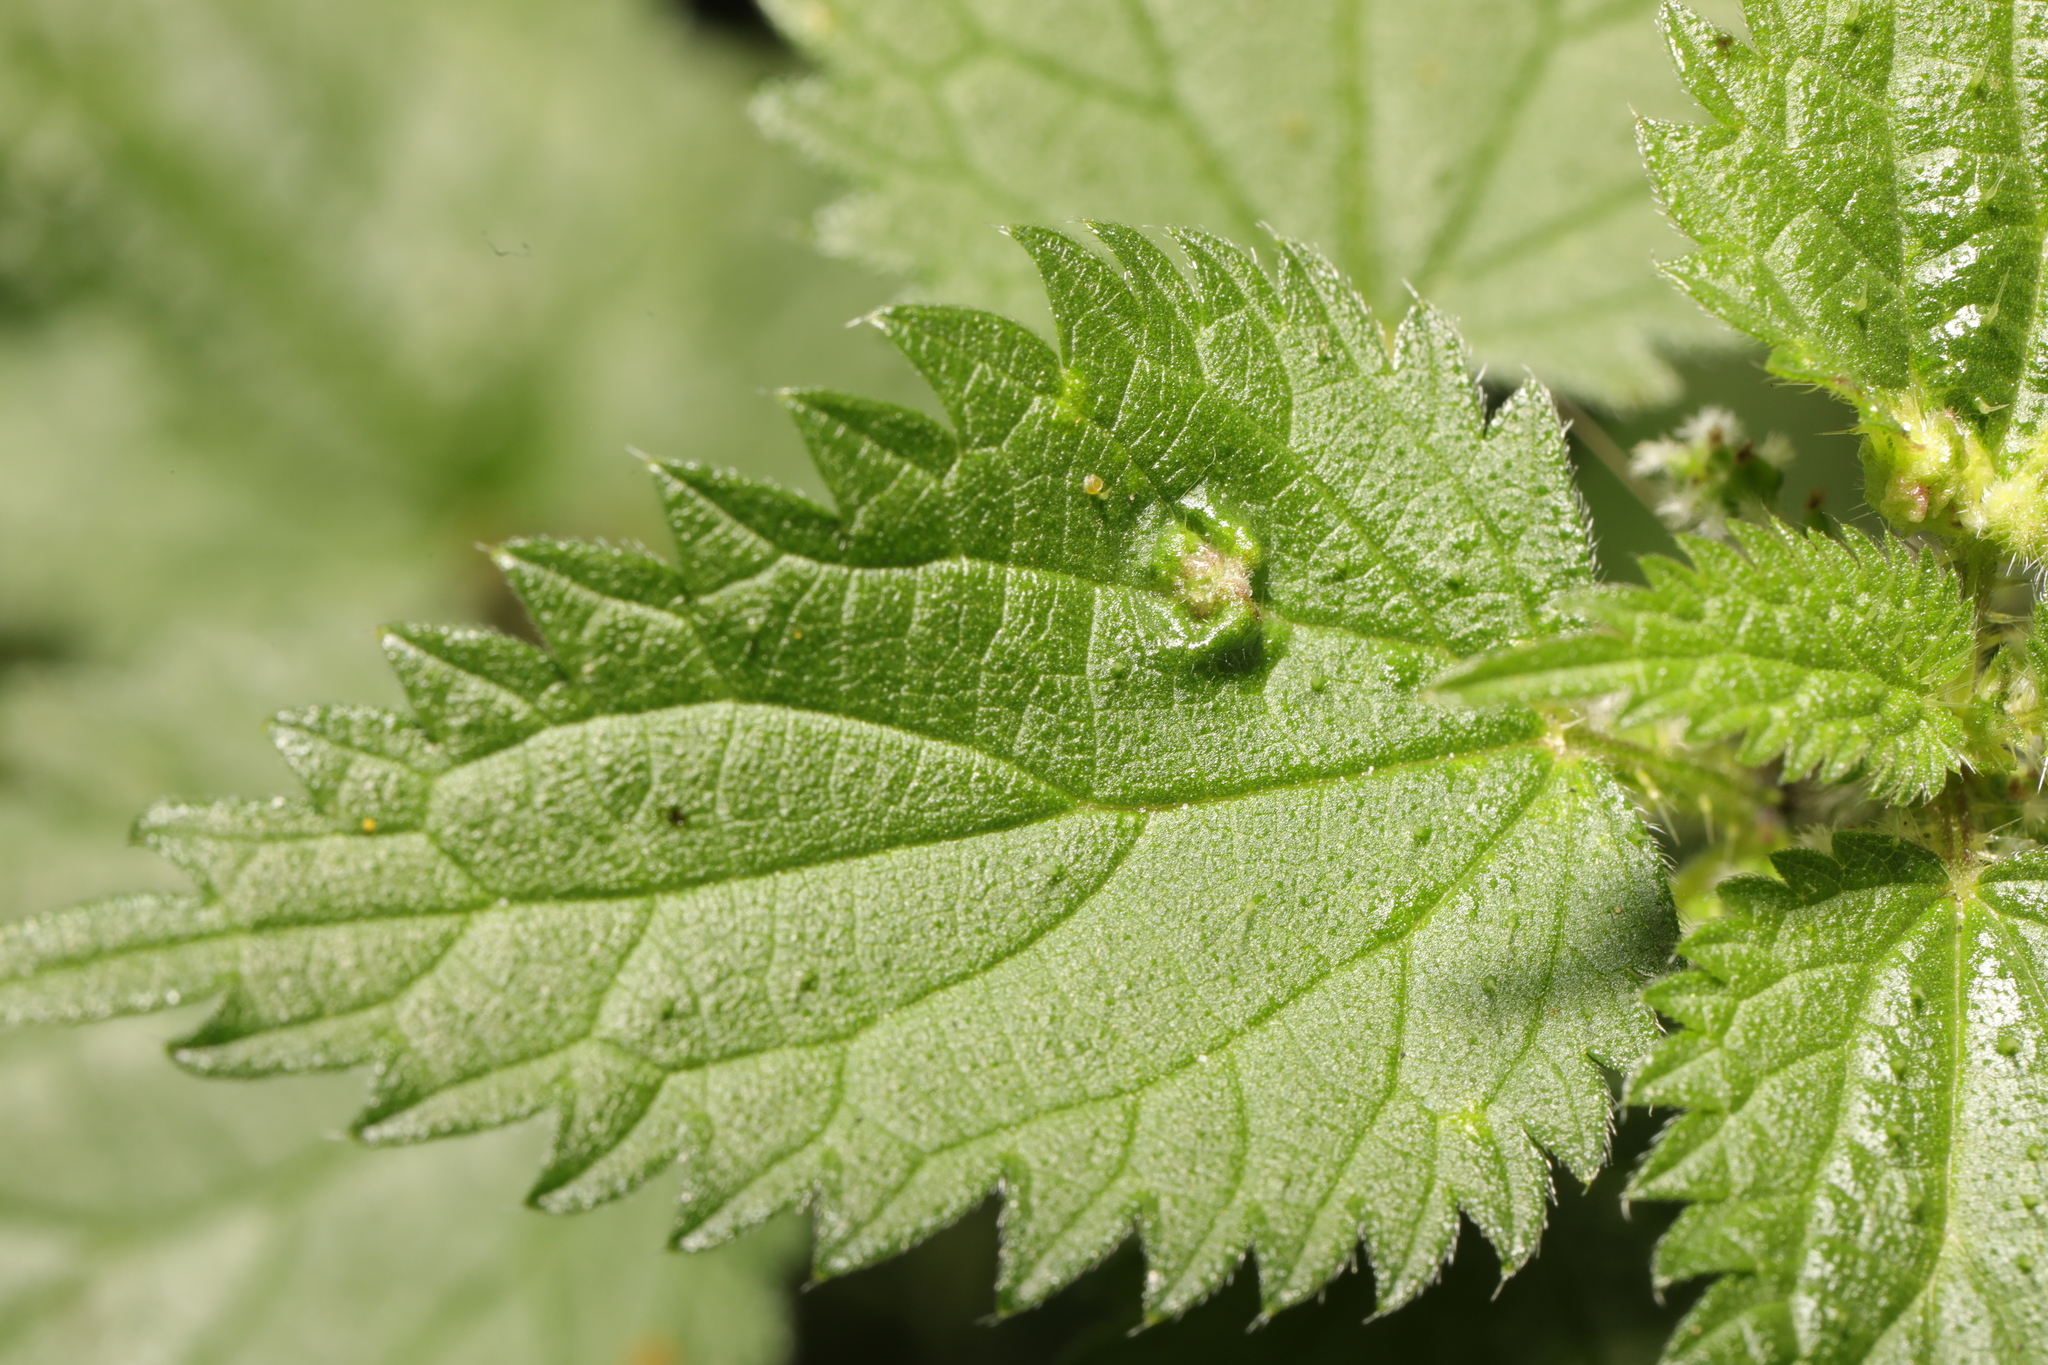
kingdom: Animalia
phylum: Arthropoda
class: Insecta
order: Diptera
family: Cecidomyiidae
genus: Dasineura
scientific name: Dasineura urticae
